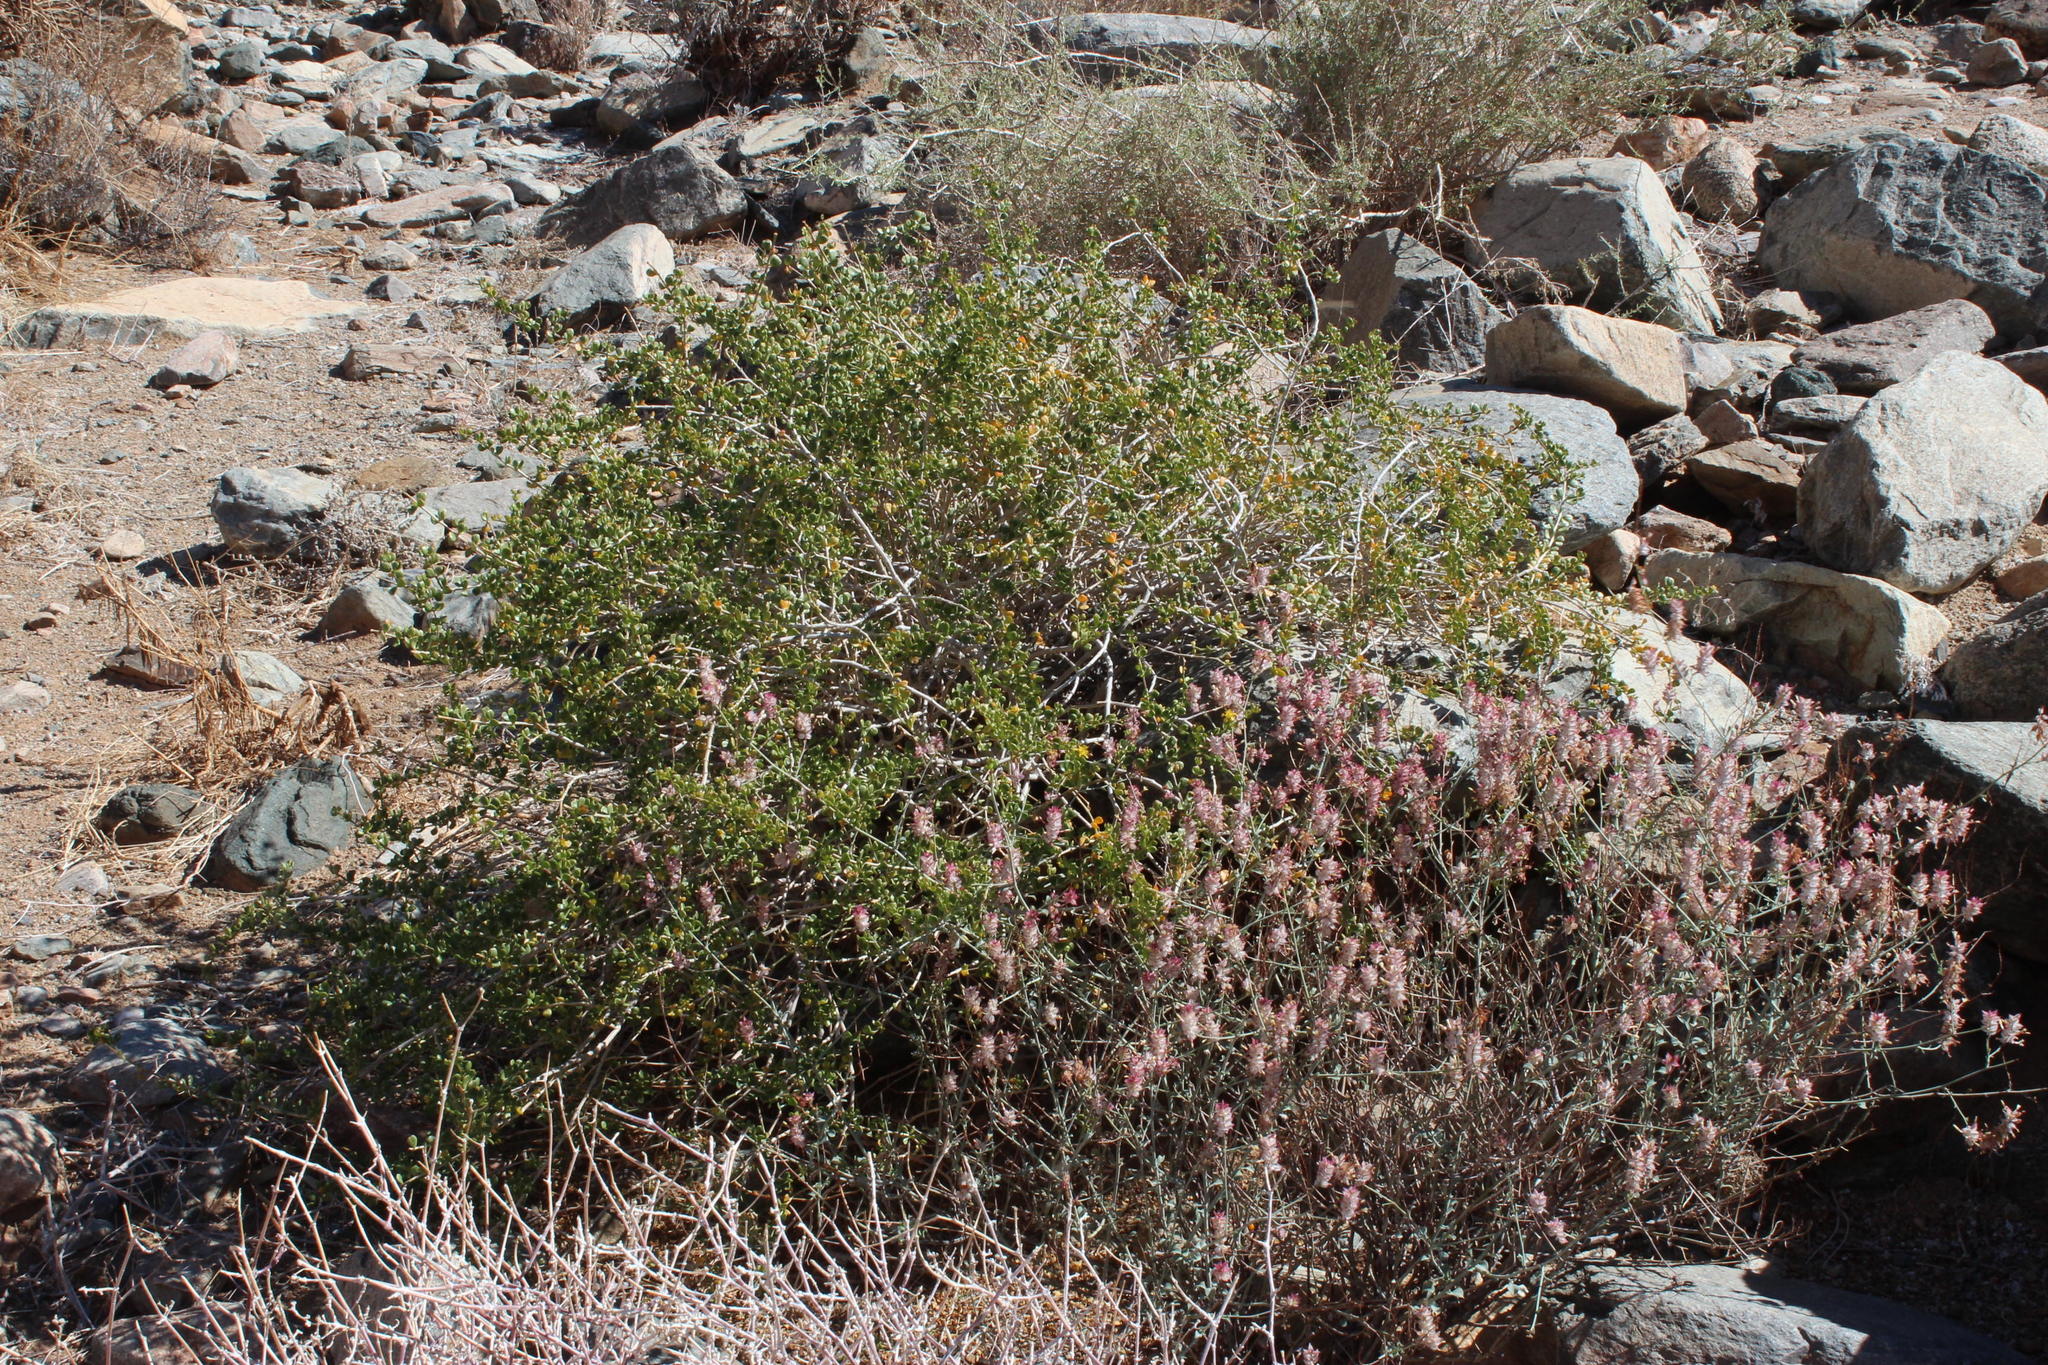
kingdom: Plantae
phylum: Tracheophyta
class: Magnoliopsida
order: Caryophyllales
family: Plumbaginaceae
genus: Dyerophytum
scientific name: Dyerophytum africanum
